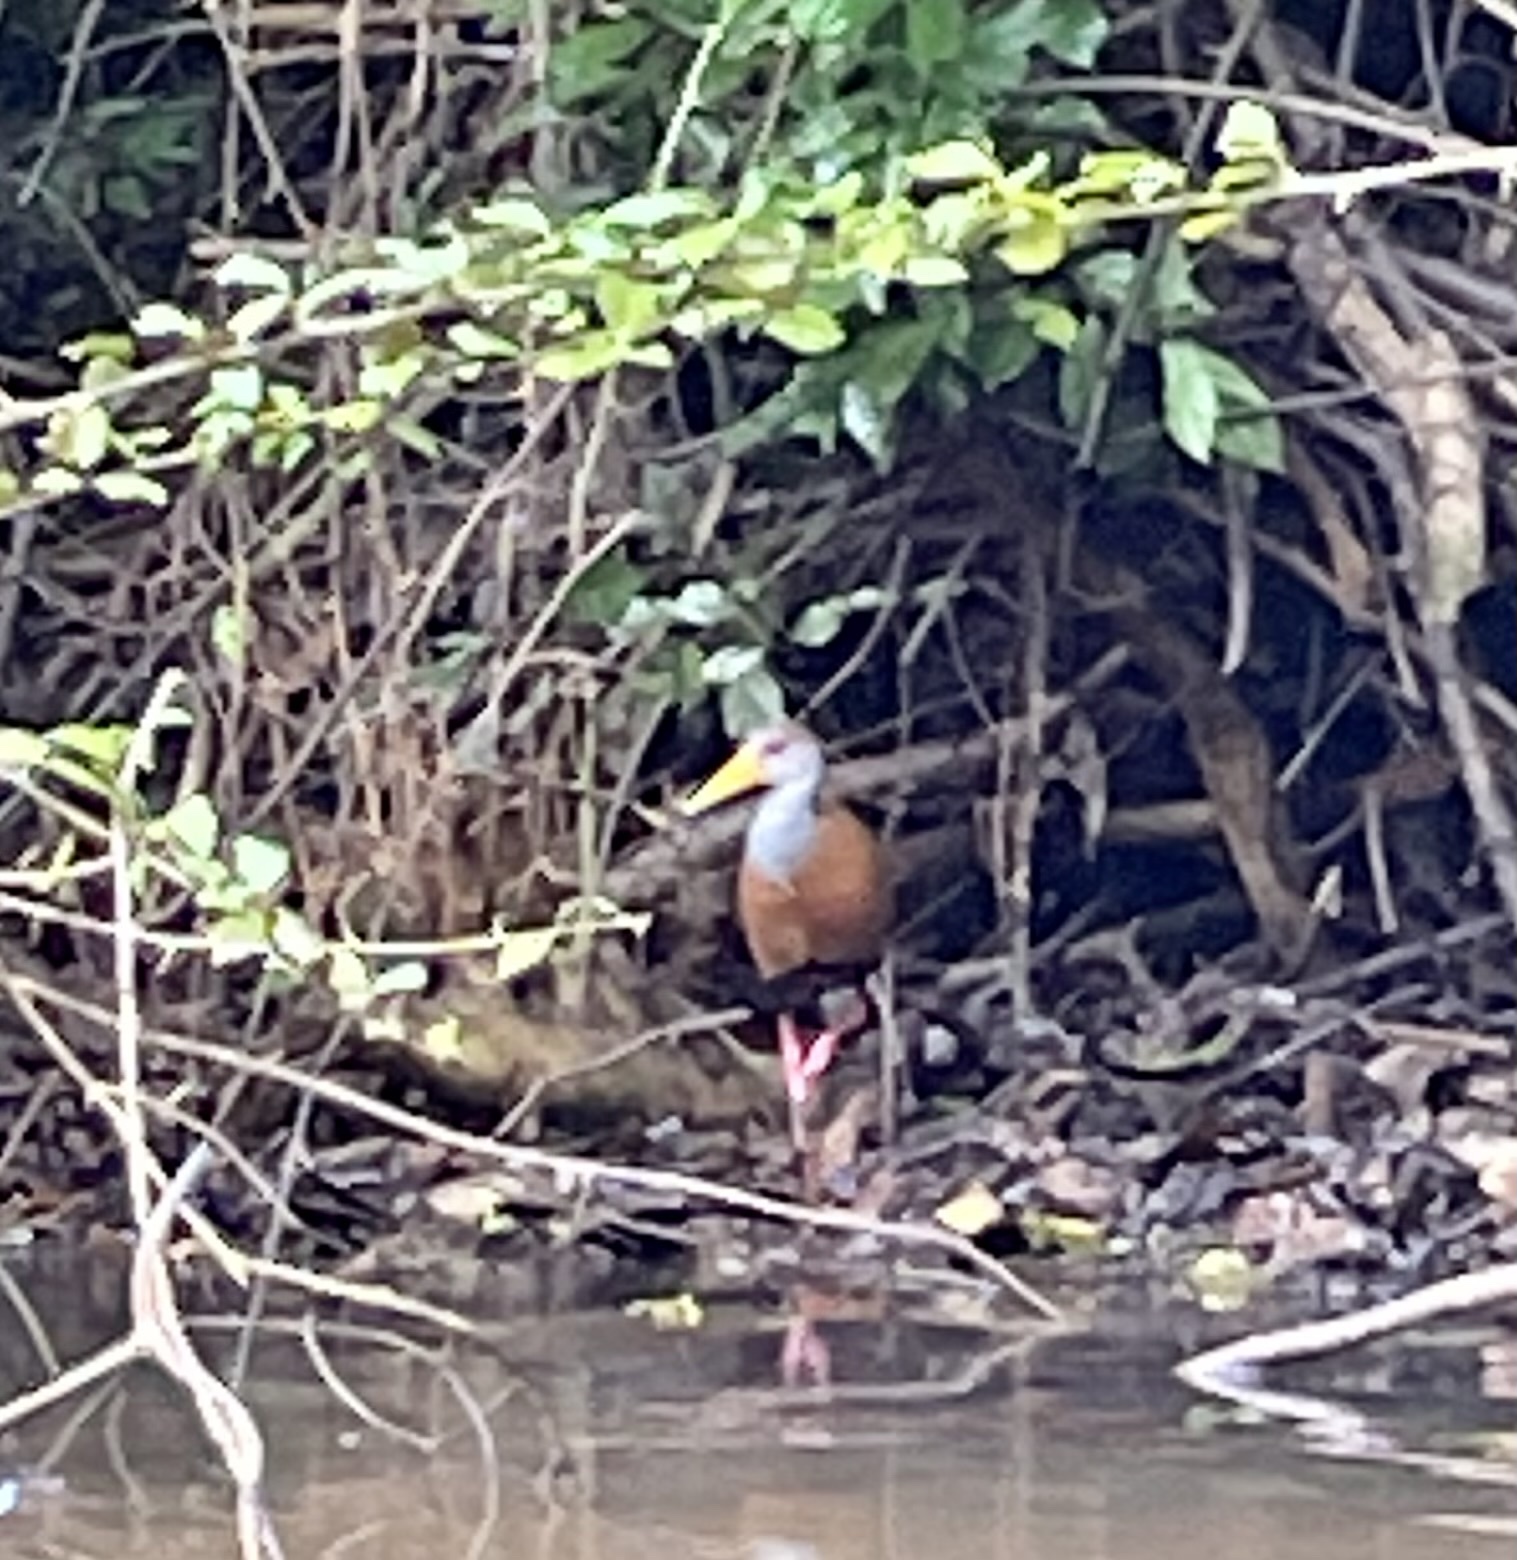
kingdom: Animalia
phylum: Chordata
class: Aves
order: Gruiformes
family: Rallidae
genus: Aramides
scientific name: Aramides albiventris
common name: Russet-naped wood-rail
